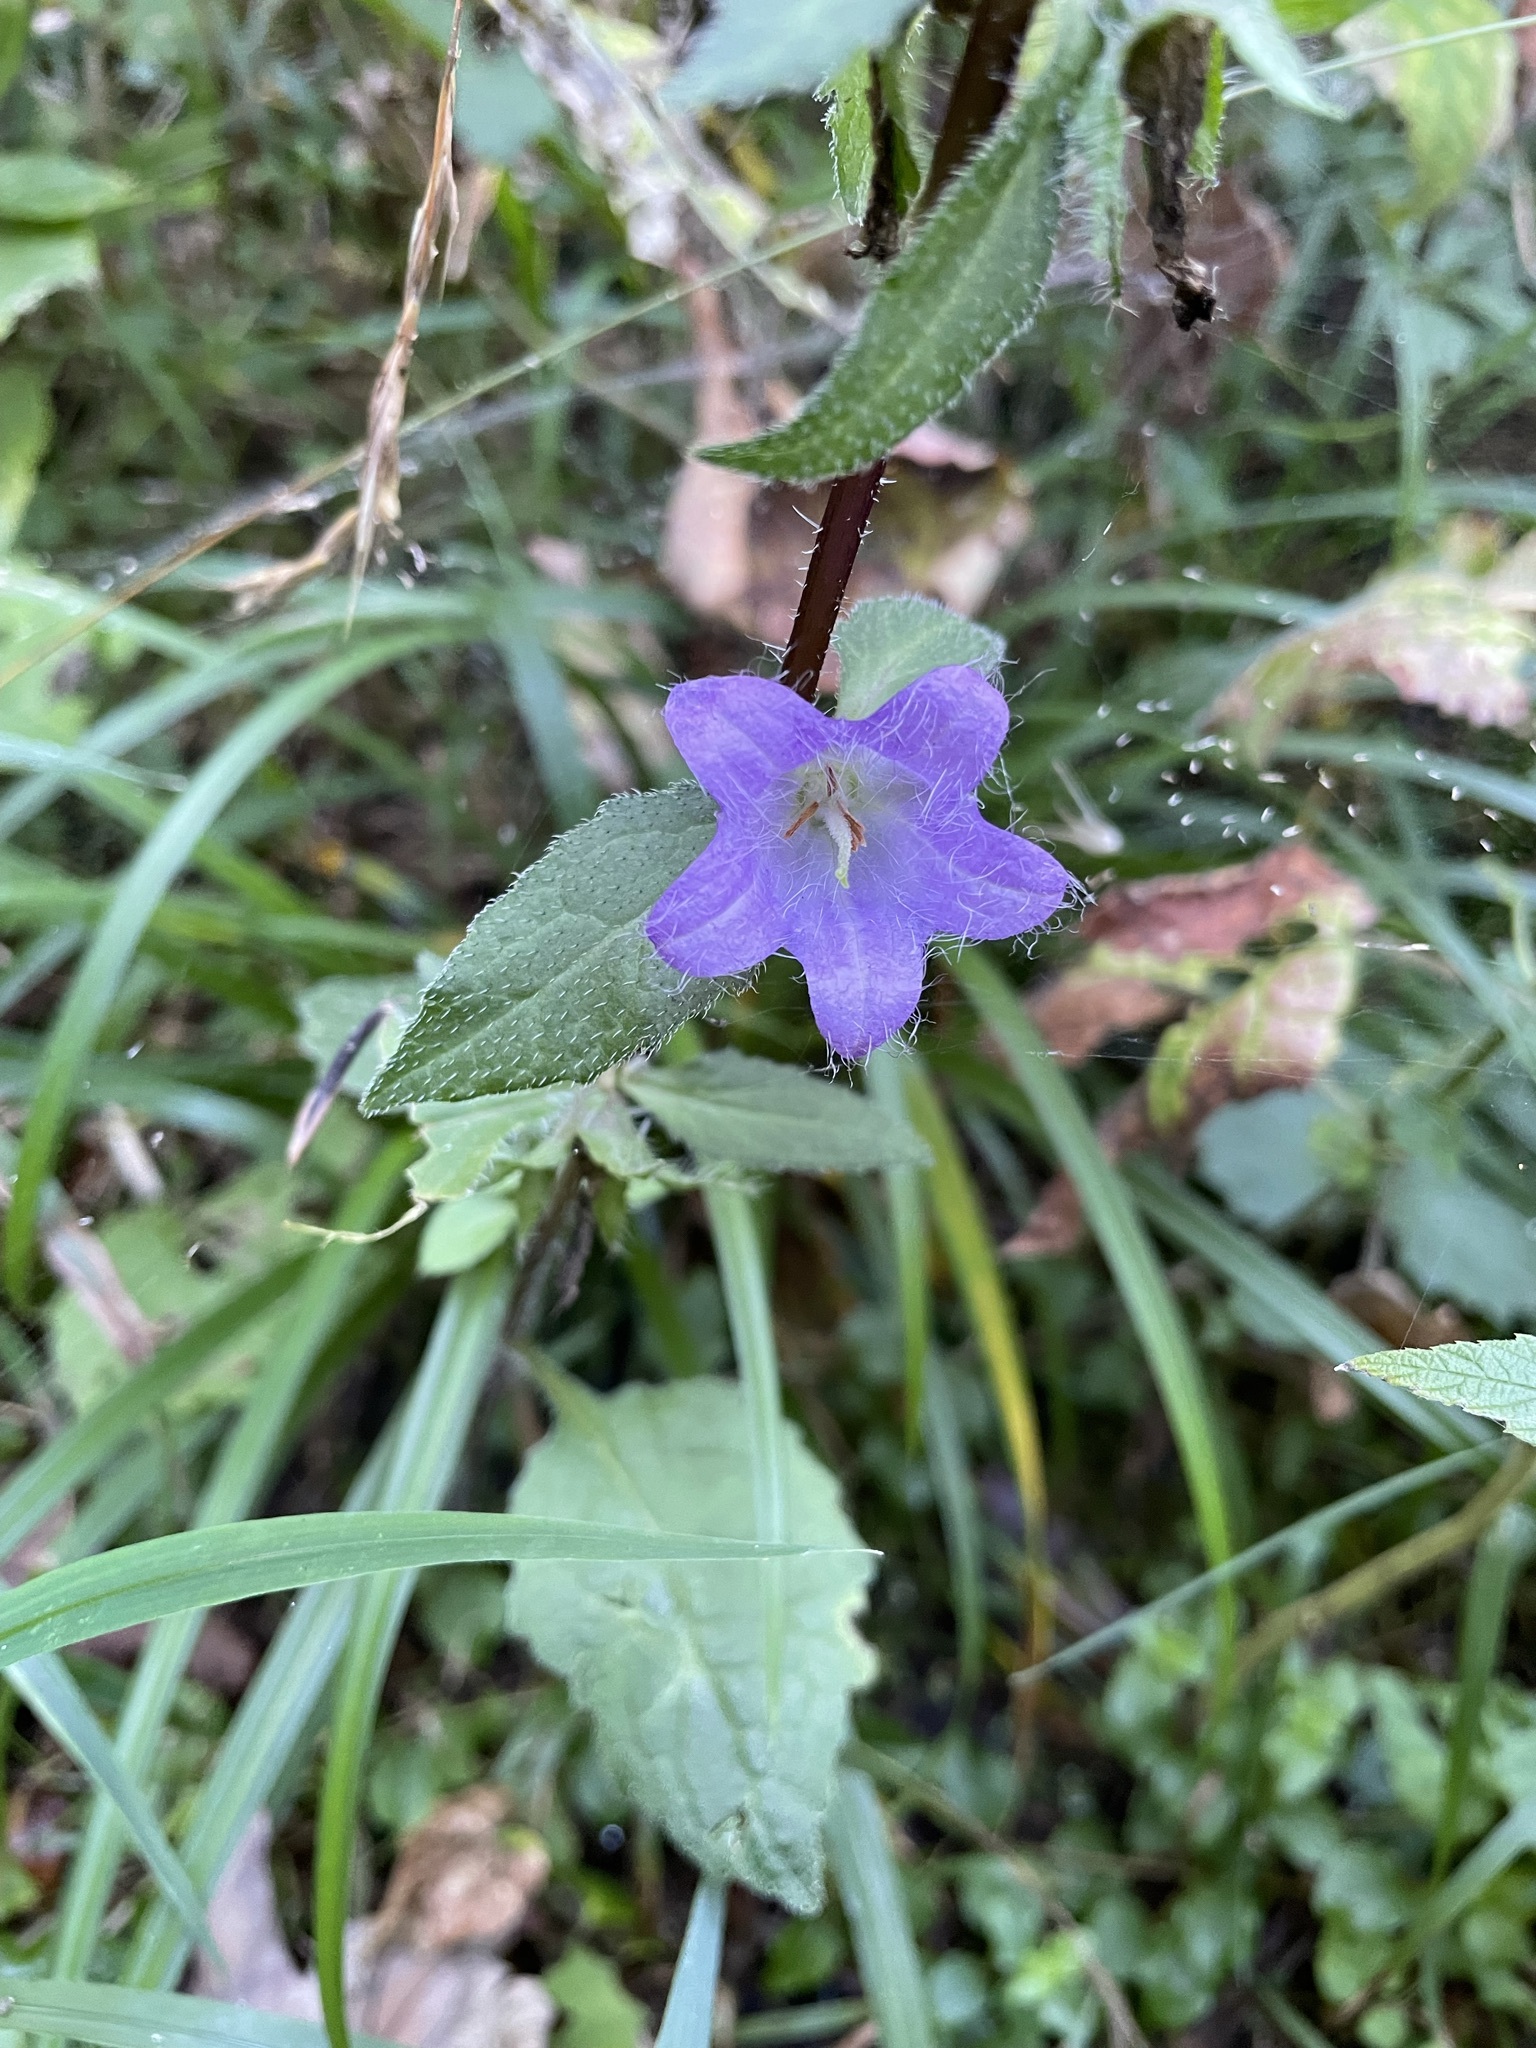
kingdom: Plantae
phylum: Tracheophyta
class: Magnoliopsida
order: Asterales
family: Campanulaceae
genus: Campanula
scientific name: Campanula trachelium
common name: Nettle-leaved bellflower
